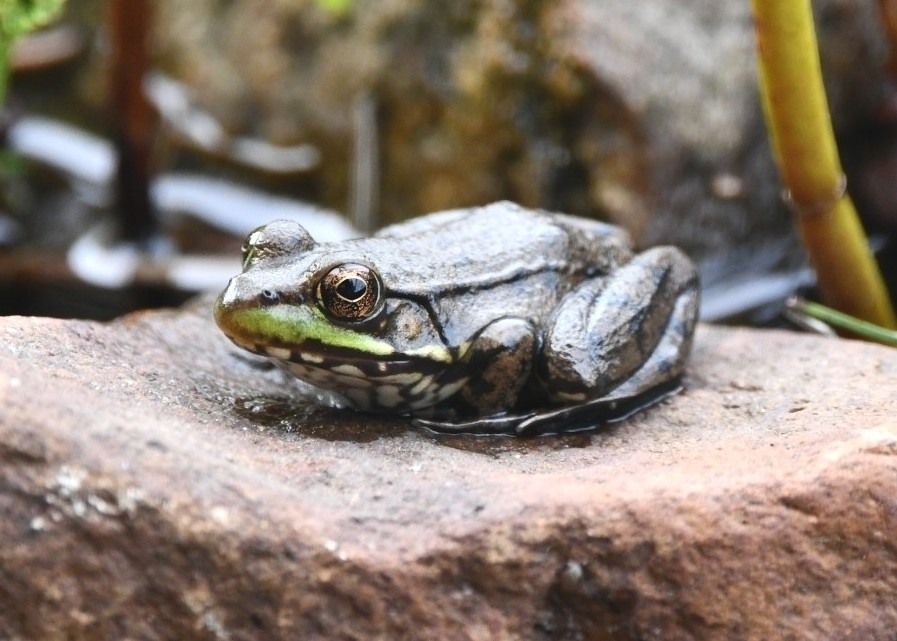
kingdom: Animalia
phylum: Chordata
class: Amphibia
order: Anura
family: Ranidae
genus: Lithobates
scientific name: Lithobates clamitans
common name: Green frog
